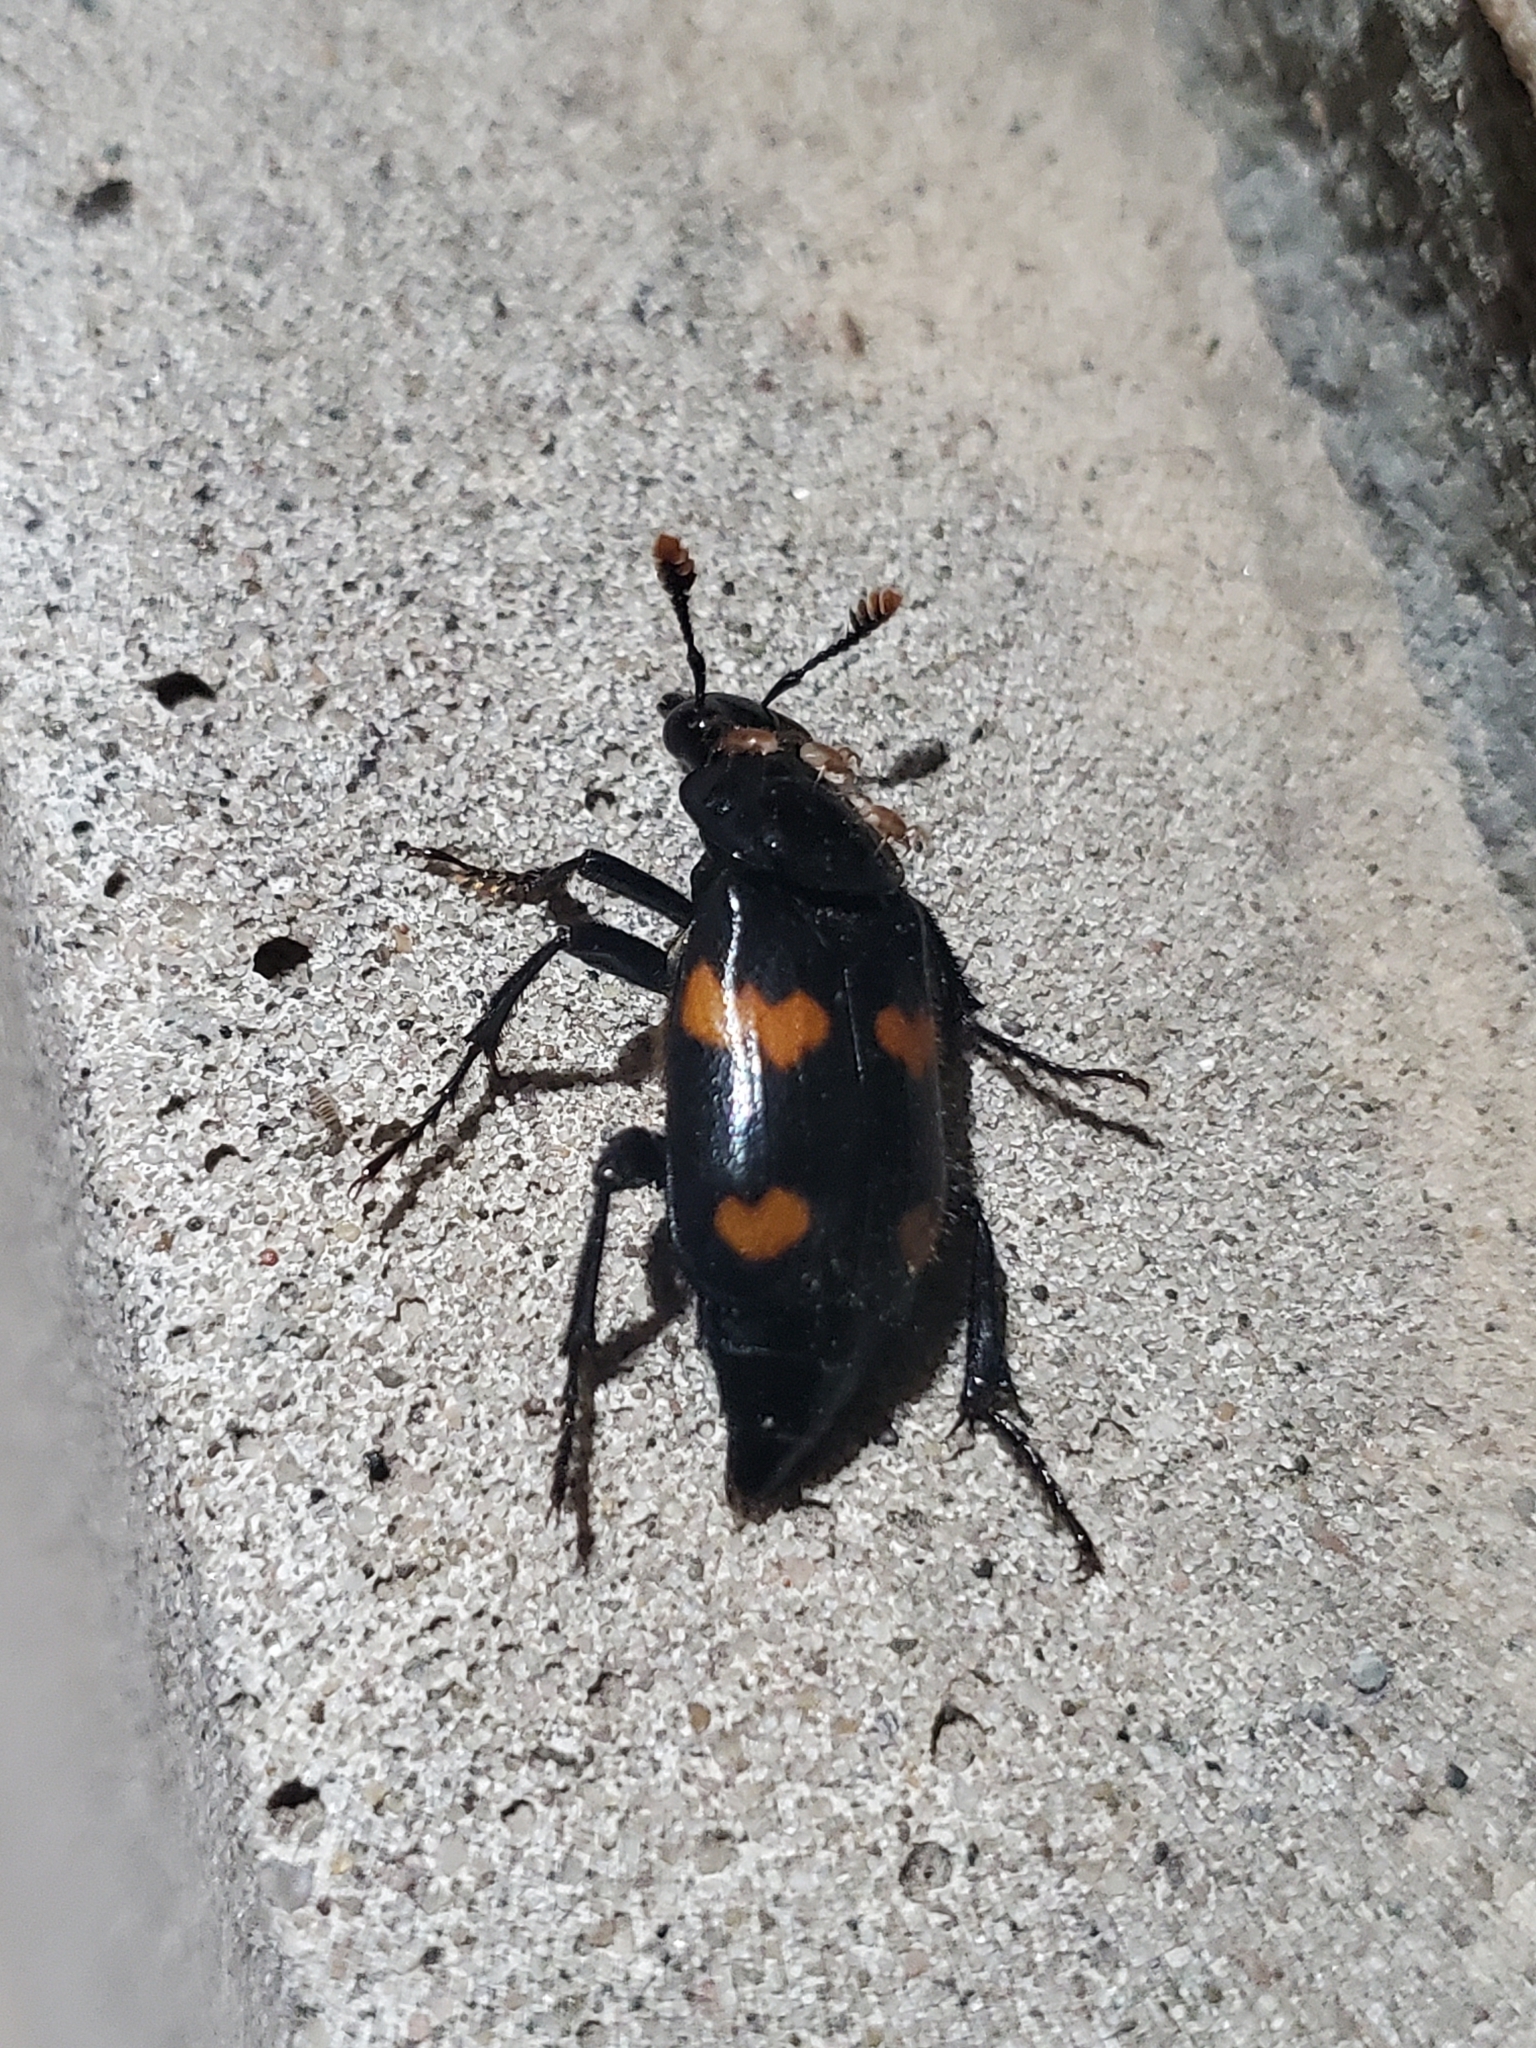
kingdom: Animalia
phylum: Arthropoda
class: Insecta
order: Coleoptera
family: Staphylinidae
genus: Nicrophorus
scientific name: Nicrophorus orbicollis
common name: Roundneck sexton beetle
